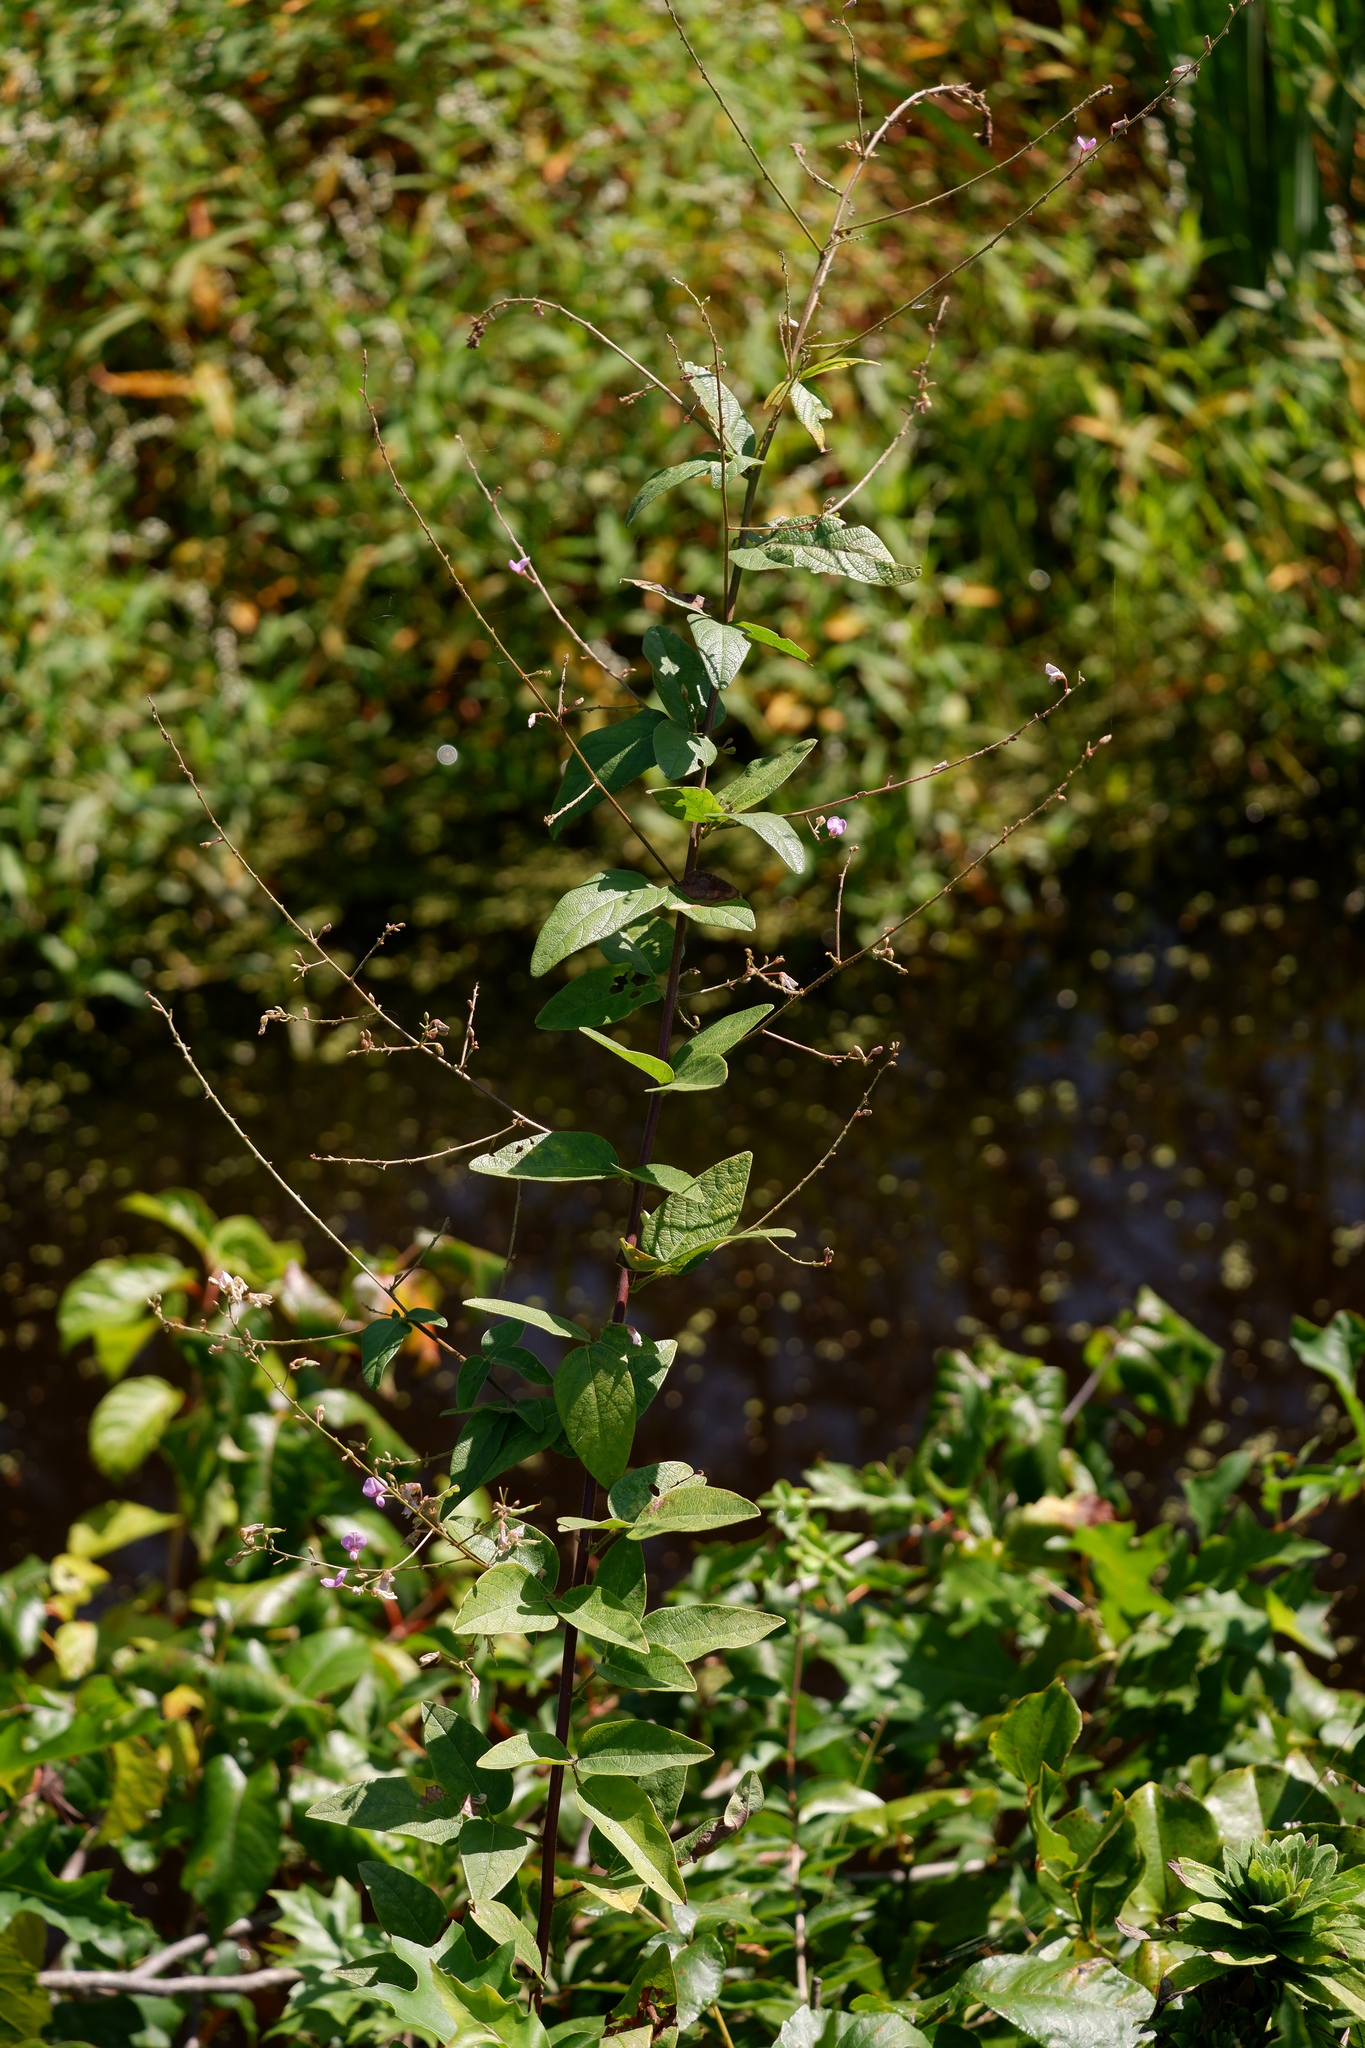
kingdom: Plantae
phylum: Tracheophyta
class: Magnoliopsida
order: Fabales
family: Fabaceae
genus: Desmodium
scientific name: Desmodium glabellum
